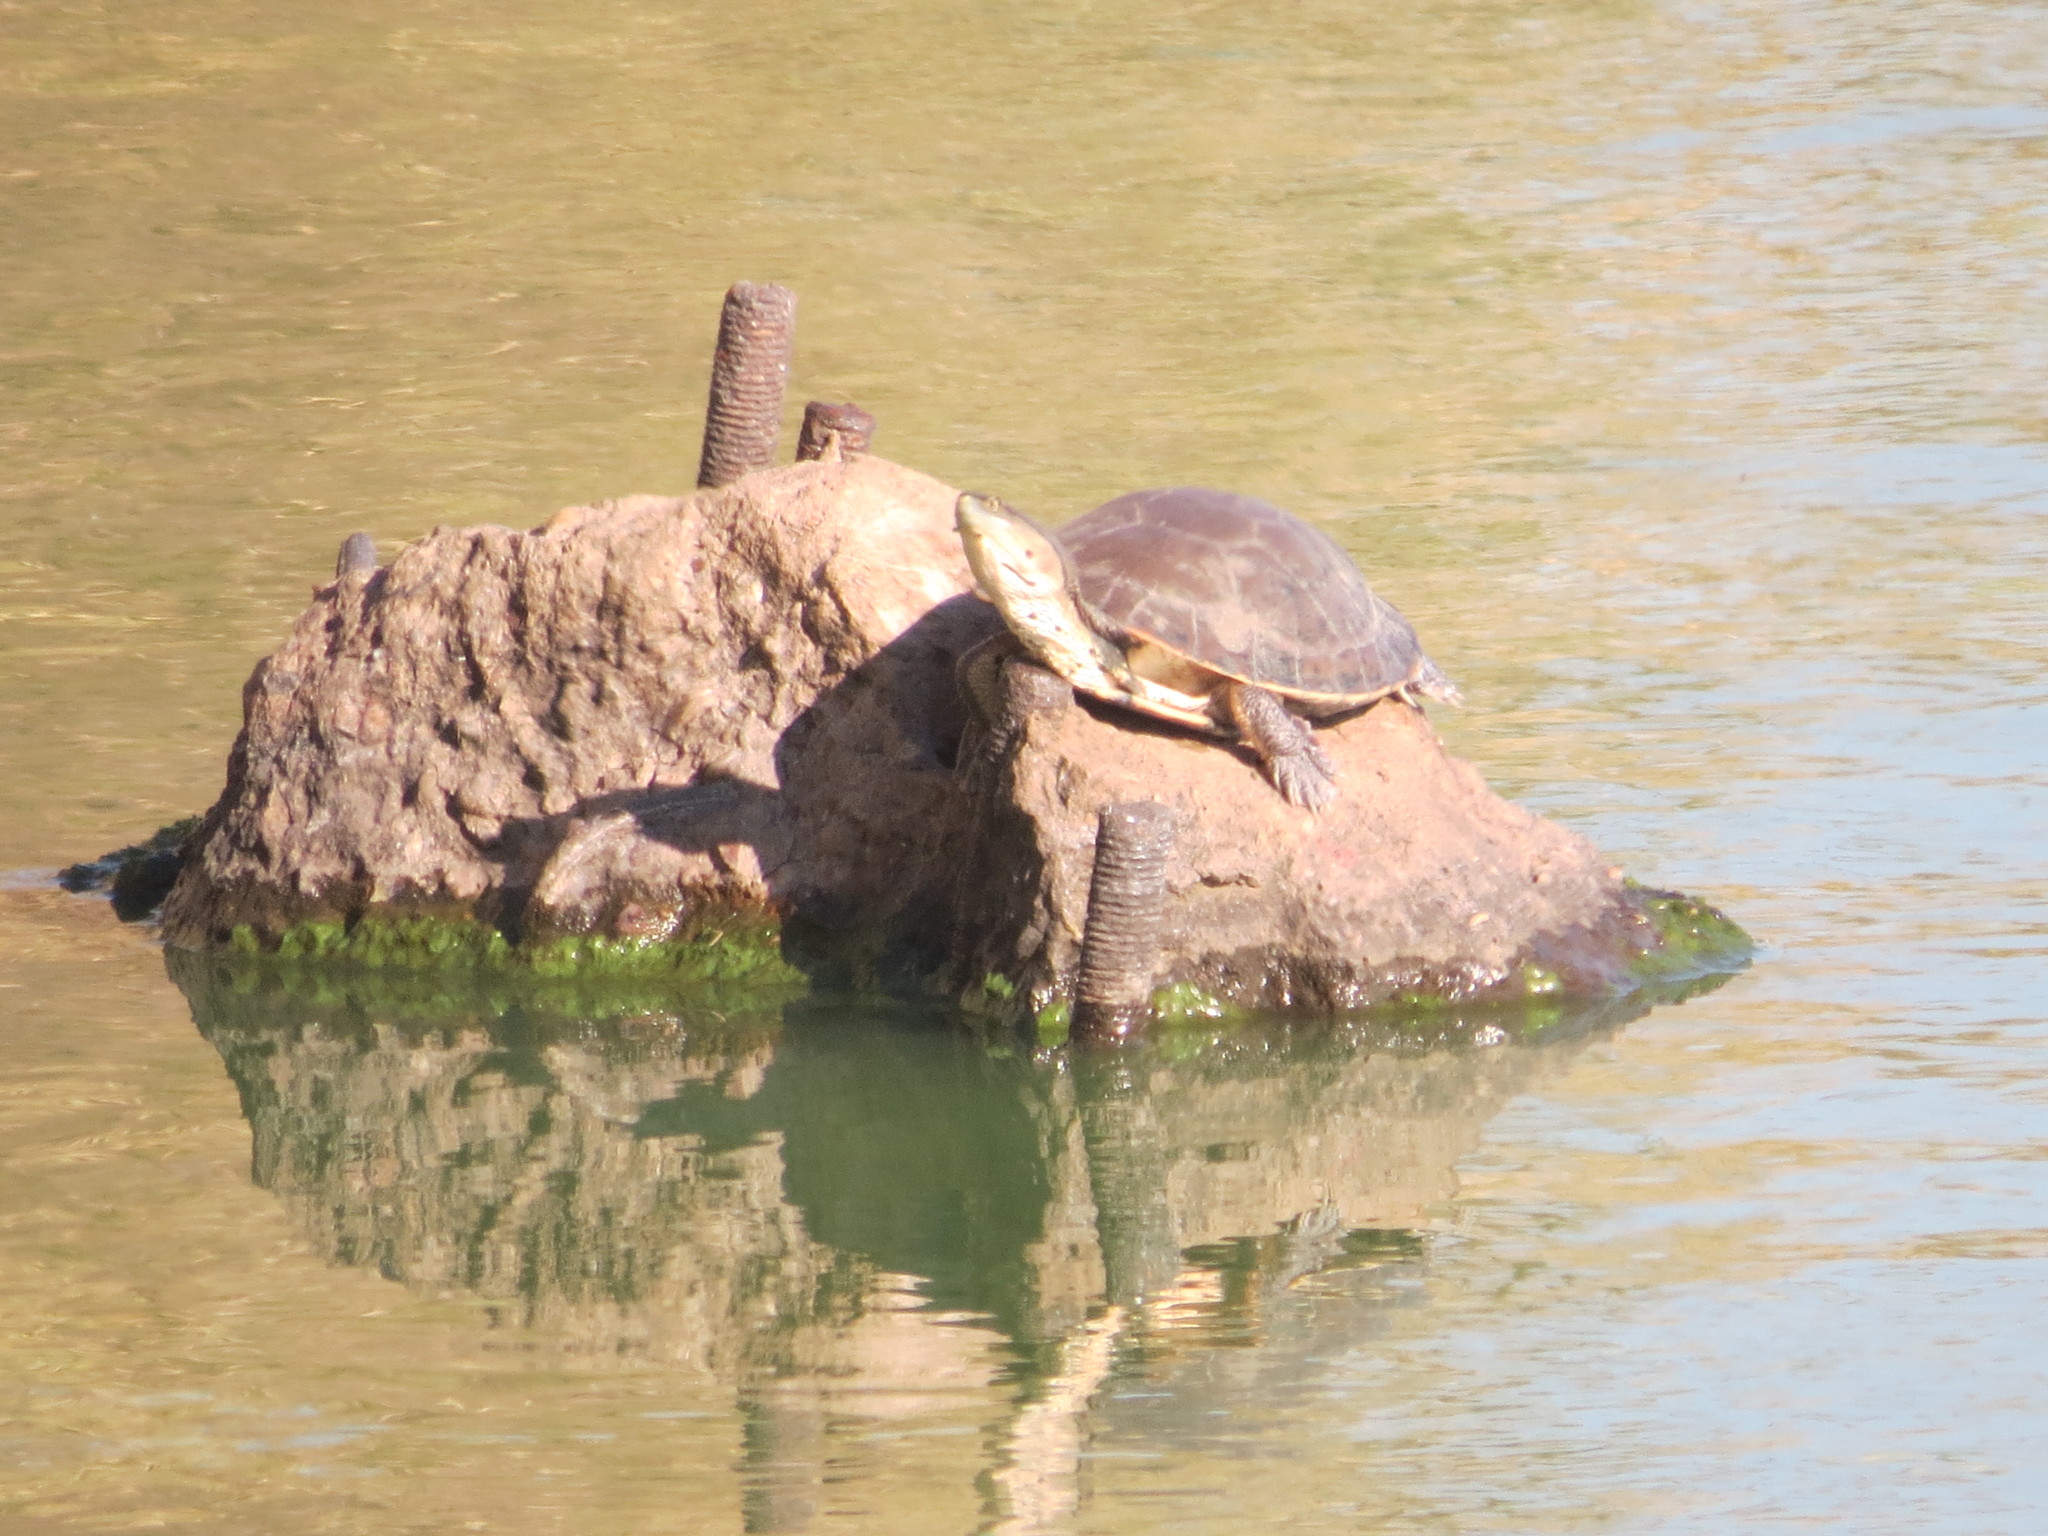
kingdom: Animalia
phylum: Chordata
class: Testudines
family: Chelidae
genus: Phrynops
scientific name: Phrynops hilarii
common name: Side-necked turtle of saint hillaire
